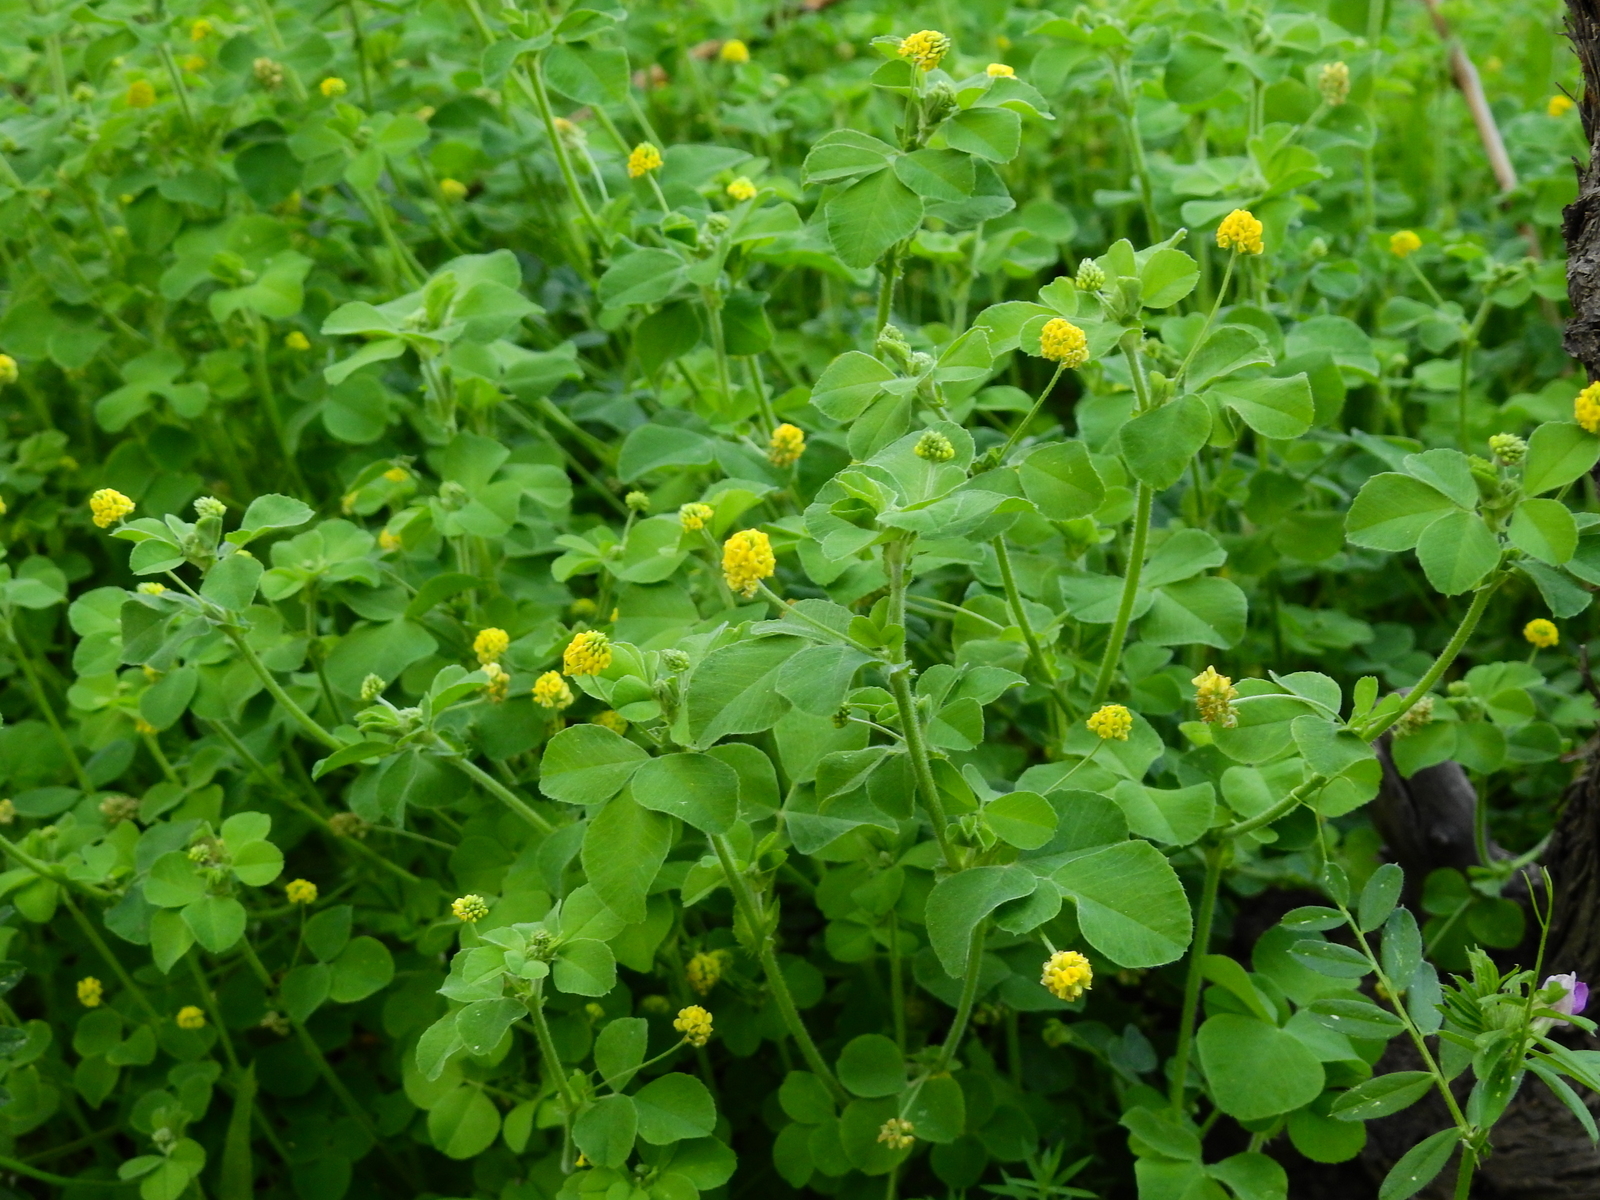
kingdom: Plantae
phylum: Tracheophyta
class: Magnoliopsida
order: Fabales
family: Fabaceae
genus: Medicago
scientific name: Medicago lupulina
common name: Black medick
